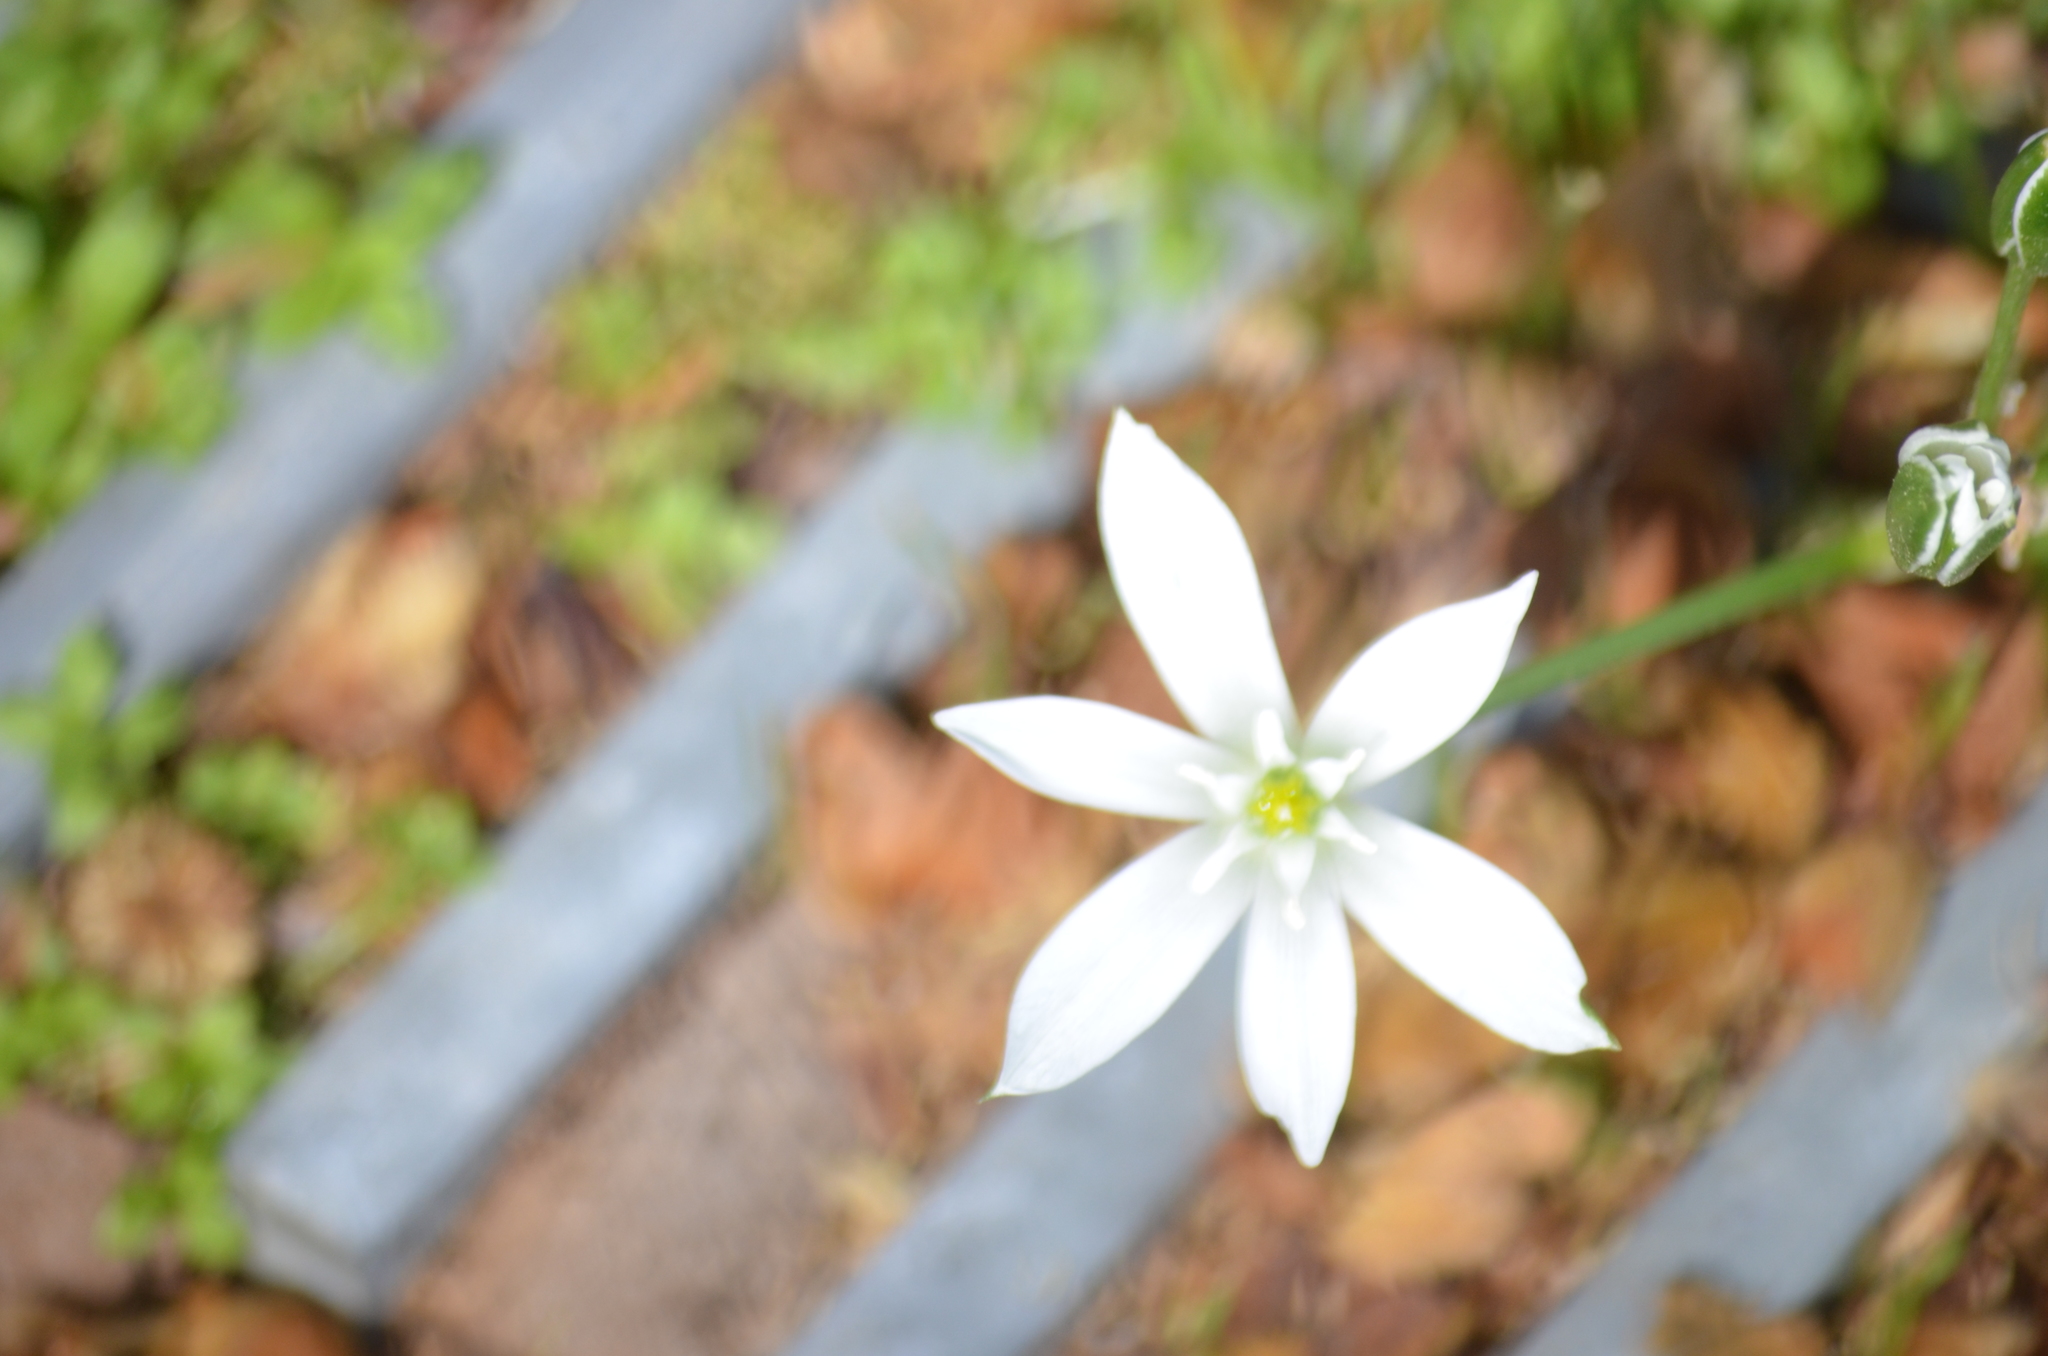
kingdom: Plantae
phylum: Tracheophyta
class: Liliopsida
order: Asparagales
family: Asparagaceae
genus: Ornithogalum
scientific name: Ornithogalum umbellatum
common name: Garden star-of-bethlehem
